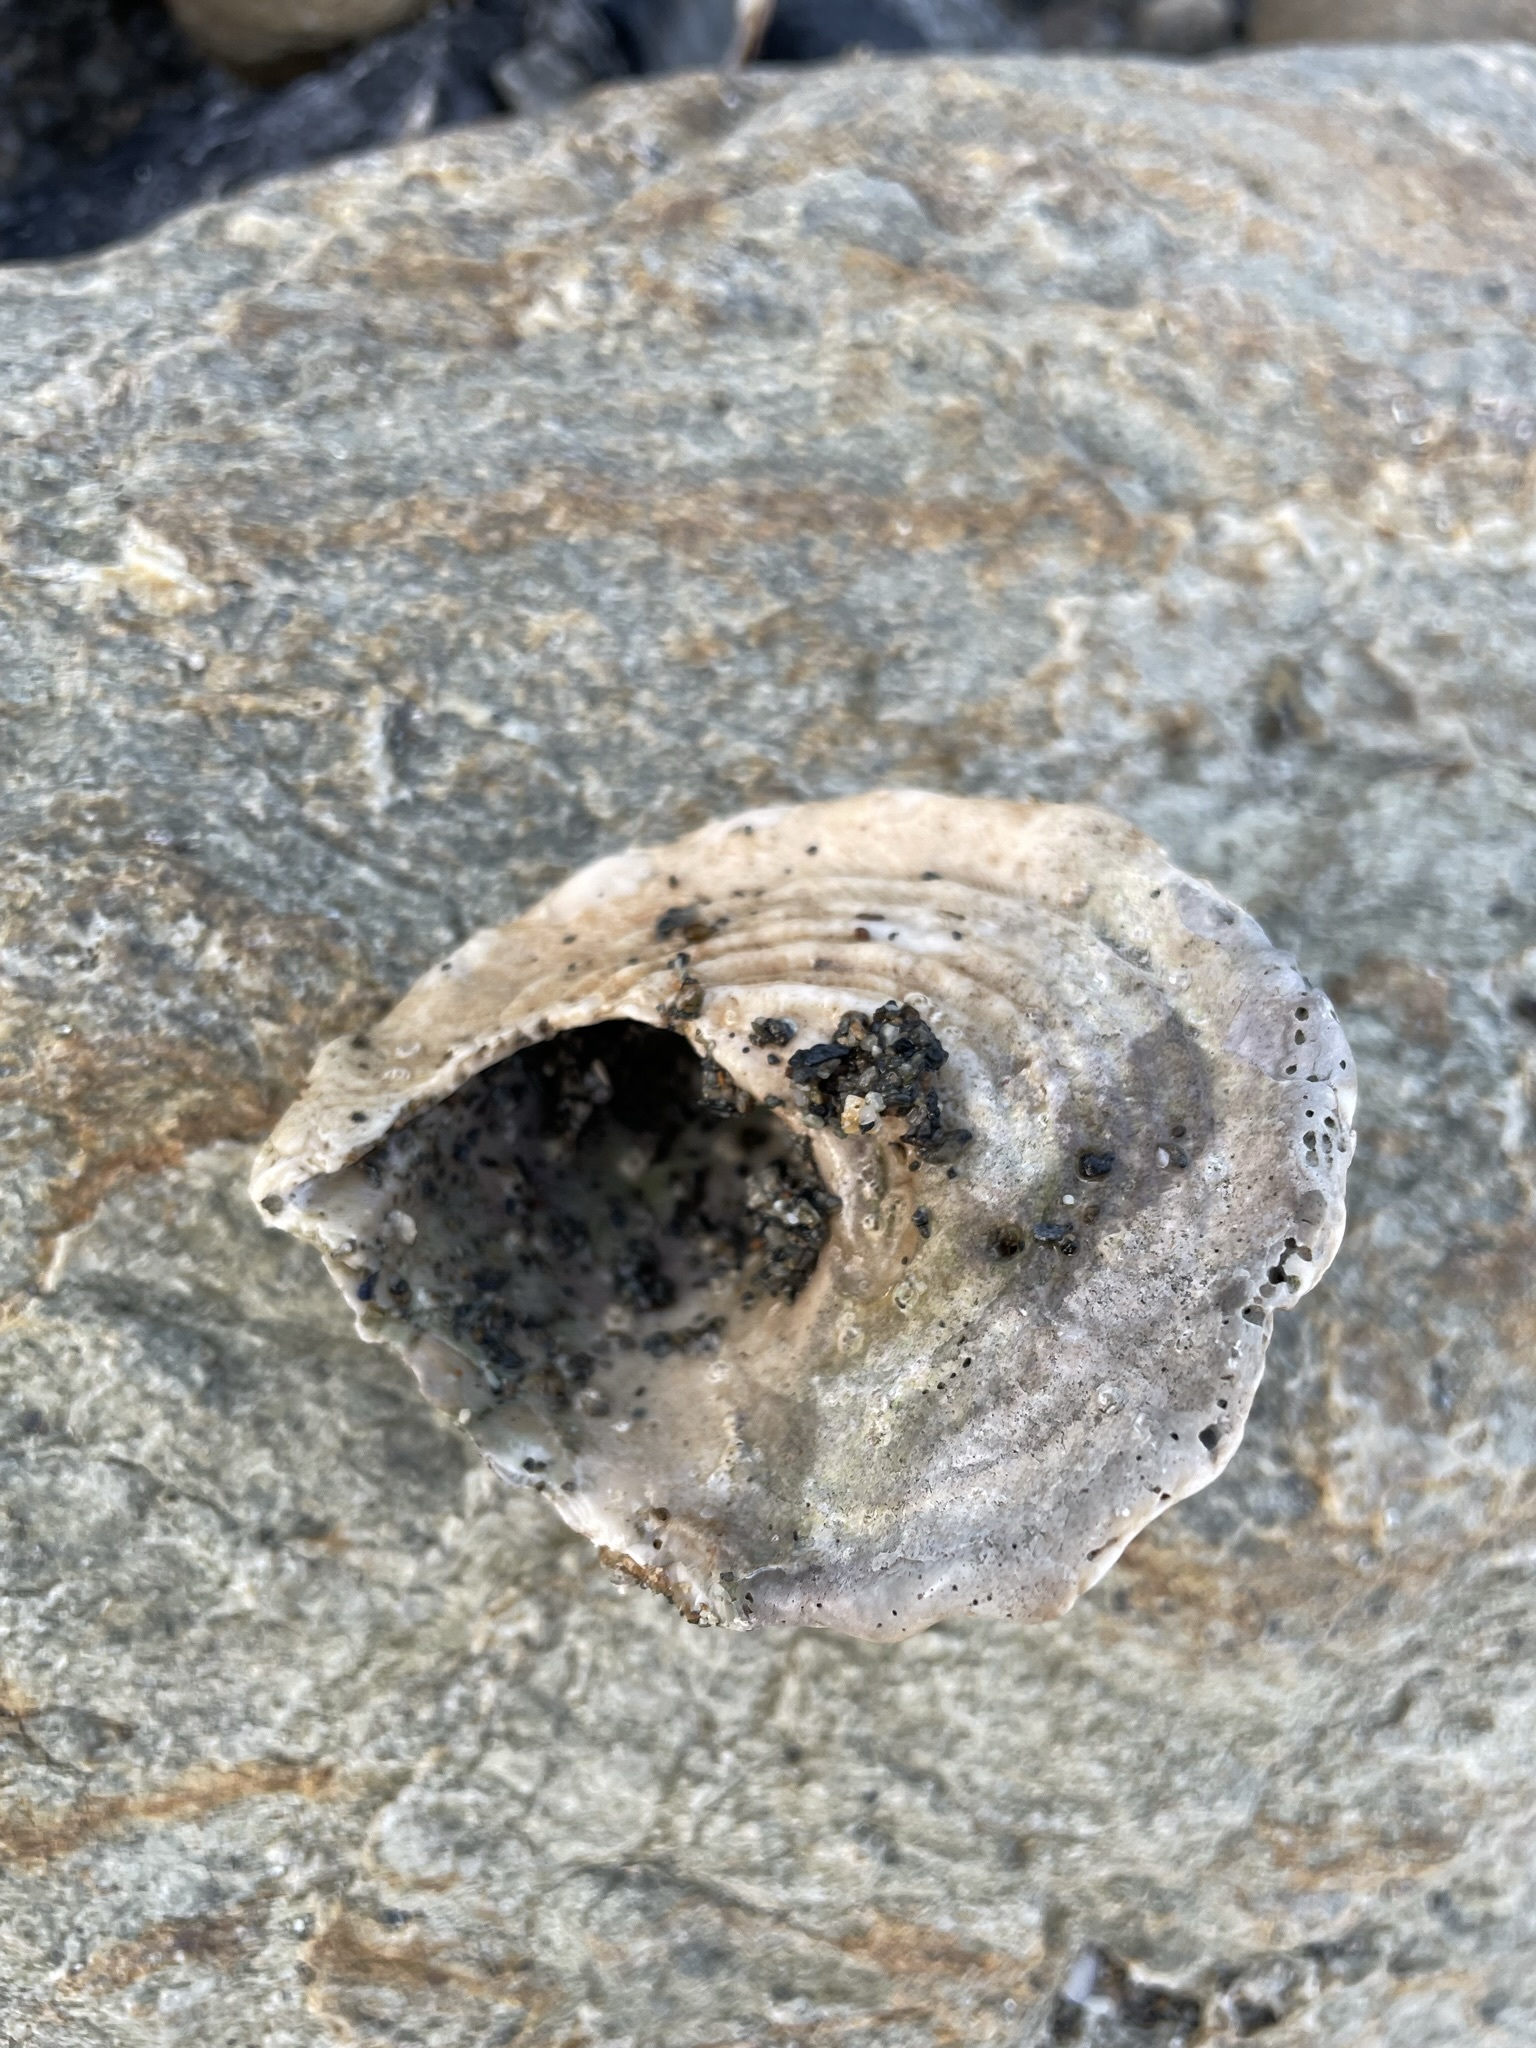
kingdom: Animalia
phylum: Mollusca
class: Gastropoda
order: Trochida
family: Turbinidae
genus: Megastraea
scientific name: Megastraea undosa
